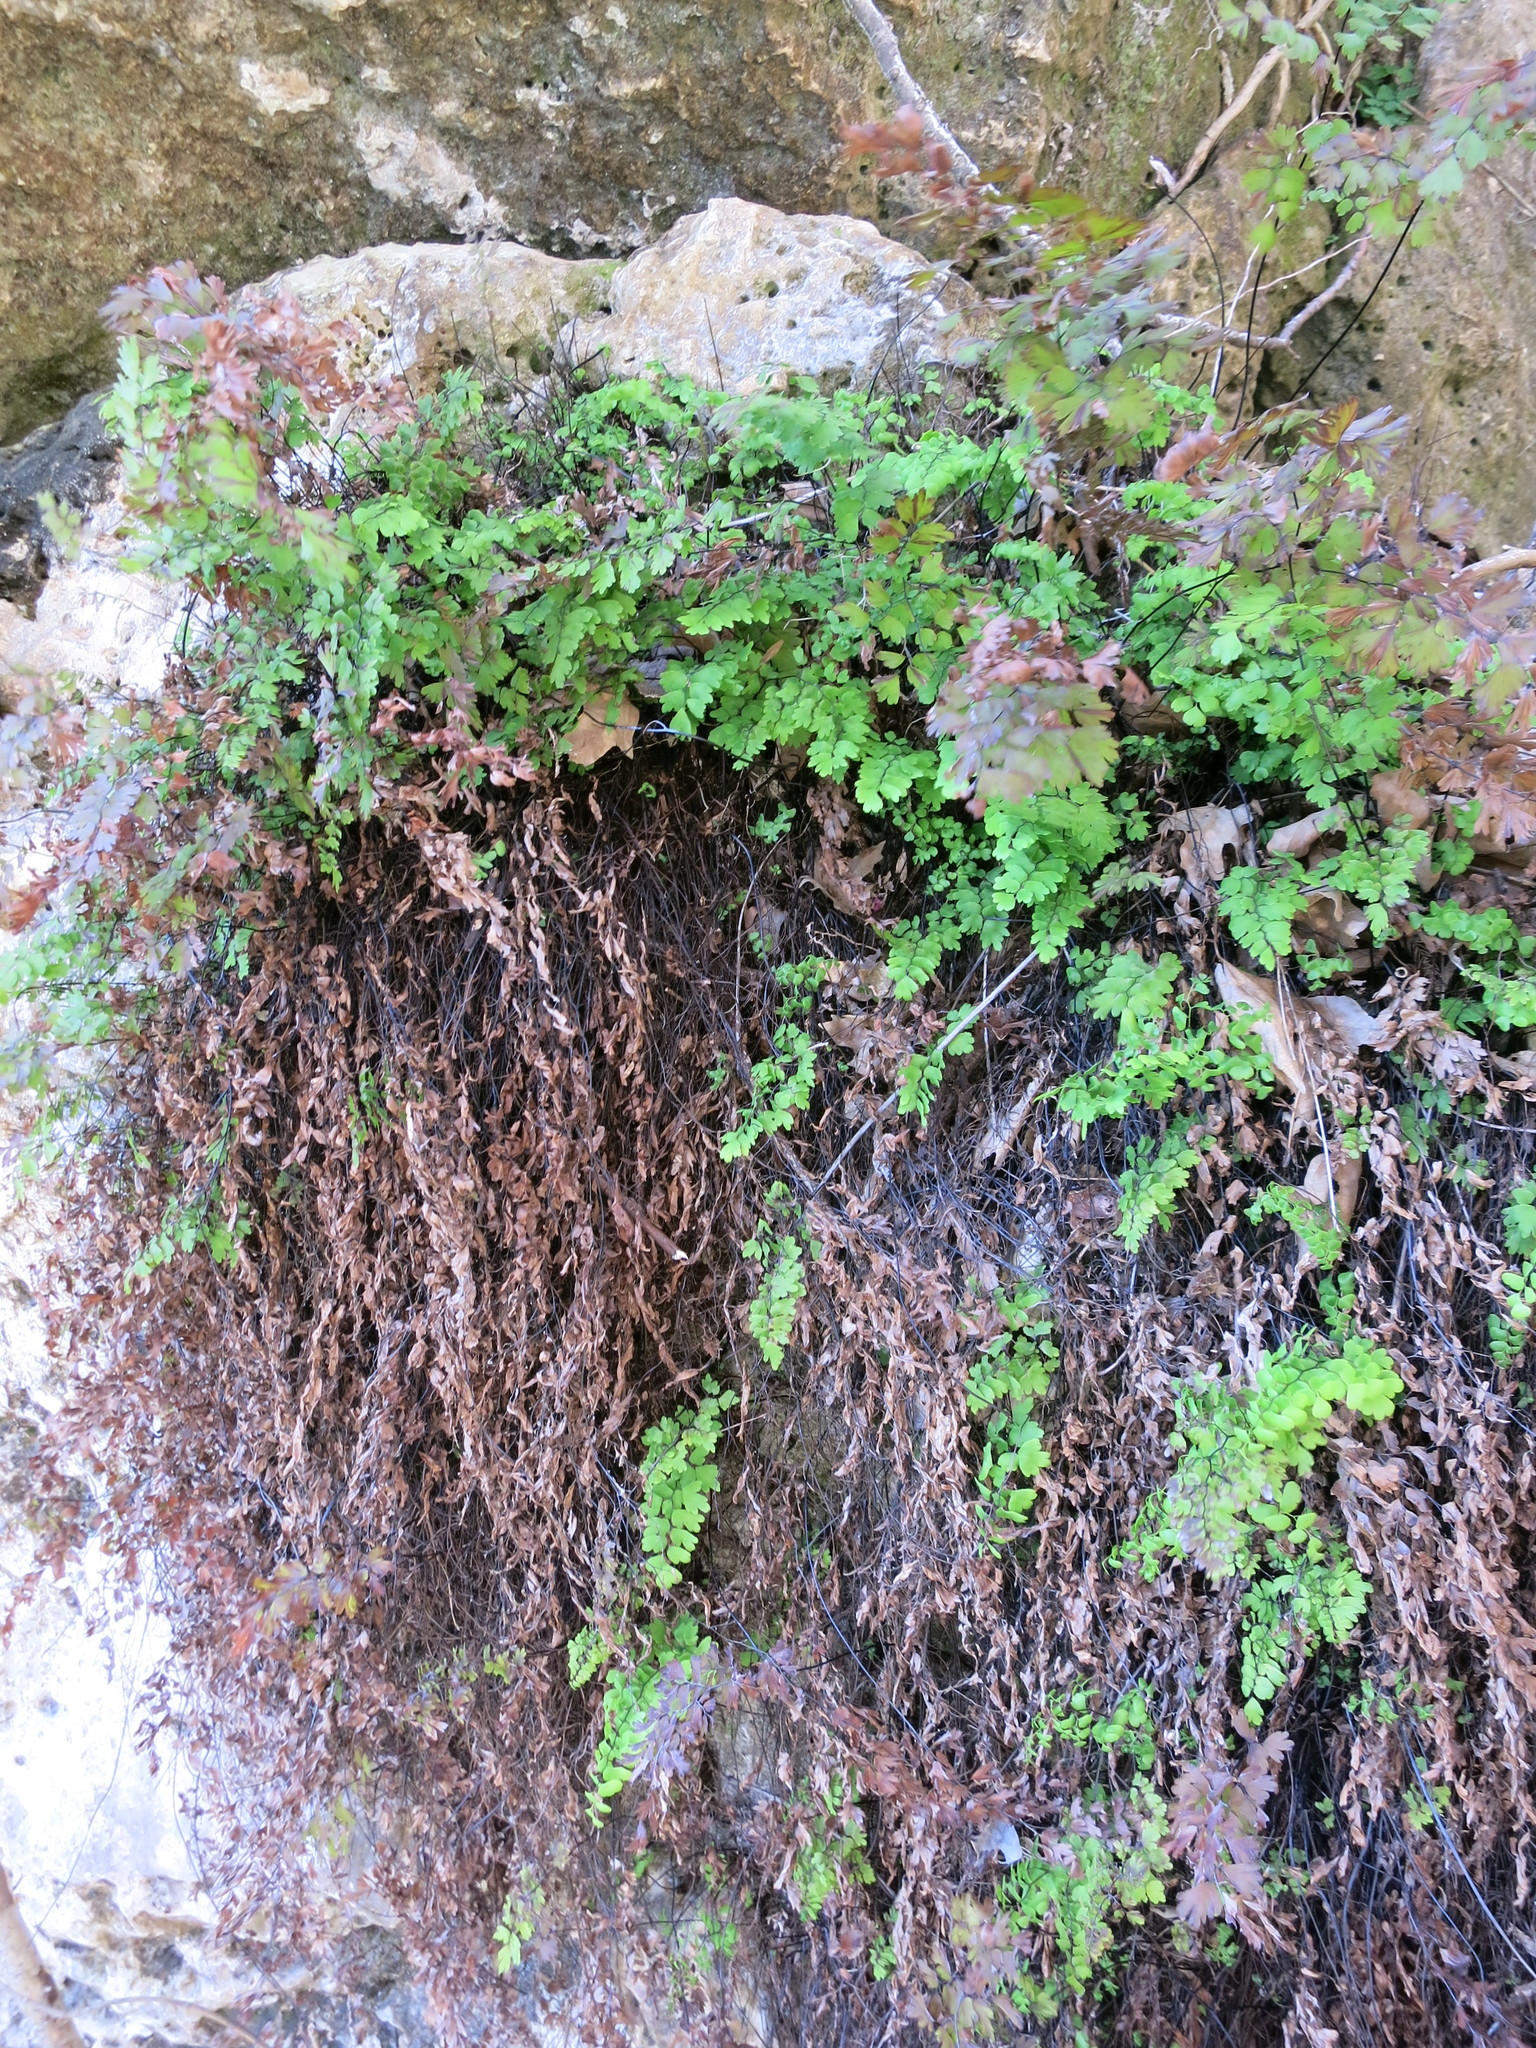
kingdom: Plantae
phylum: Tracheophyta
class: Polypodiopsida
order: Polypodiales
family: Pteridaceae
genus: Adiantum
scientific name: Adiantum capillus-veneris
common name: Maidenhair fern
